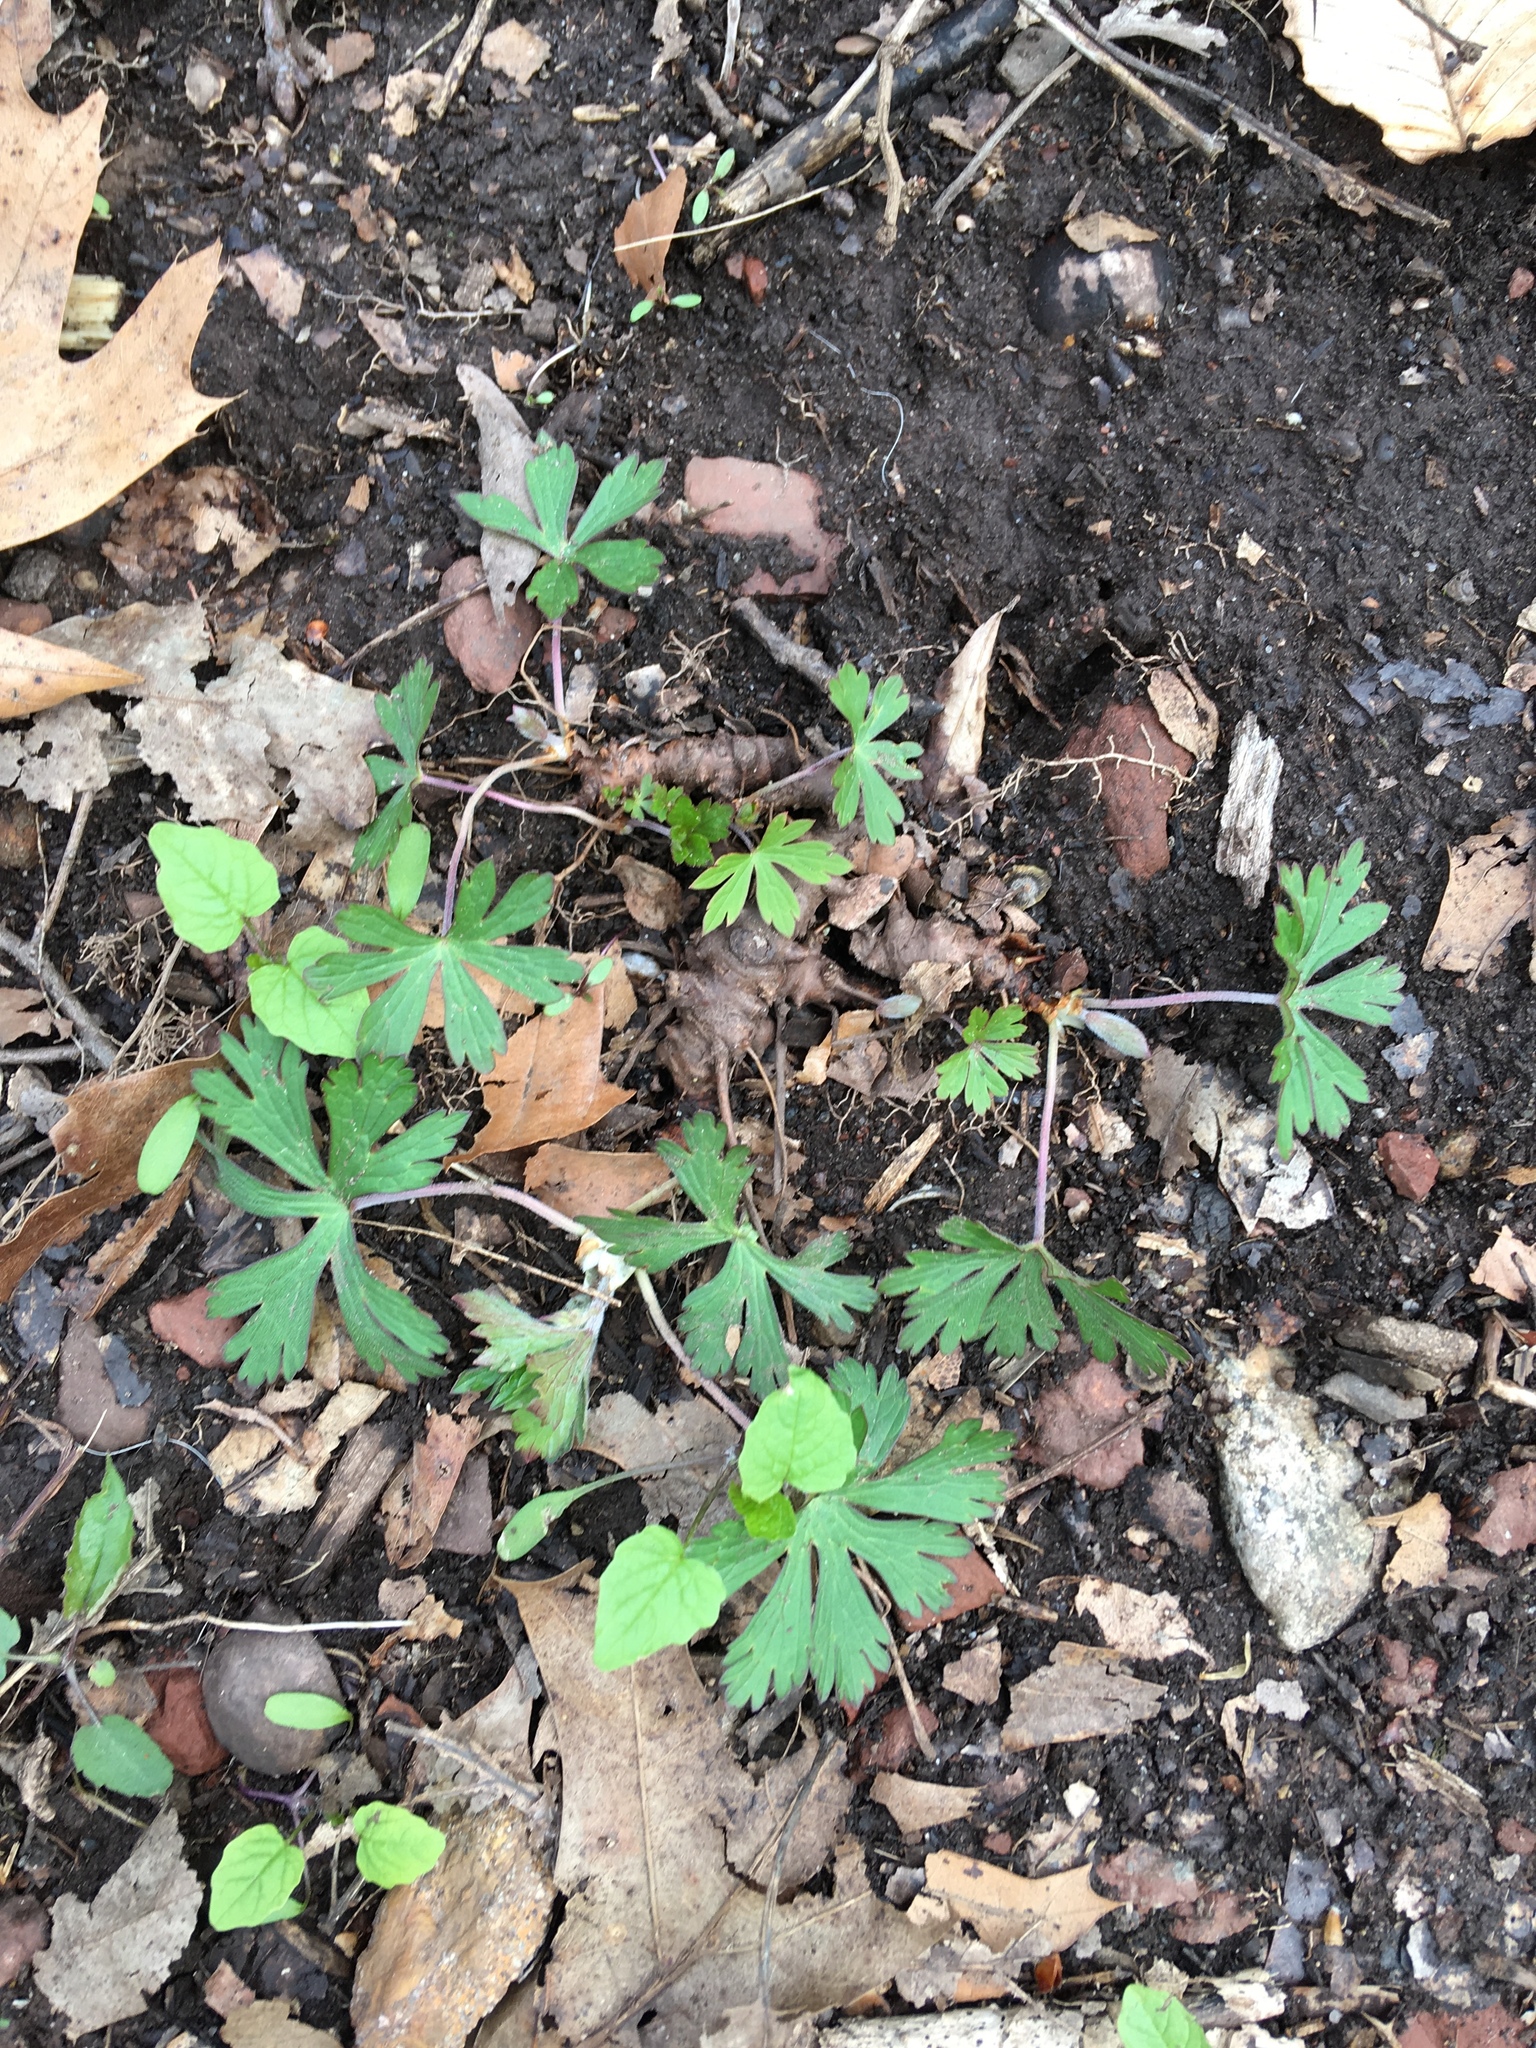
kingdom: Plantae
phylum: Tracheophyta
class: Magnoliopsida
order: Geraniales
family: Geraniaceae
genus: Geranium
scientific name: Geranium maculatum
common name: Spotted geranium
